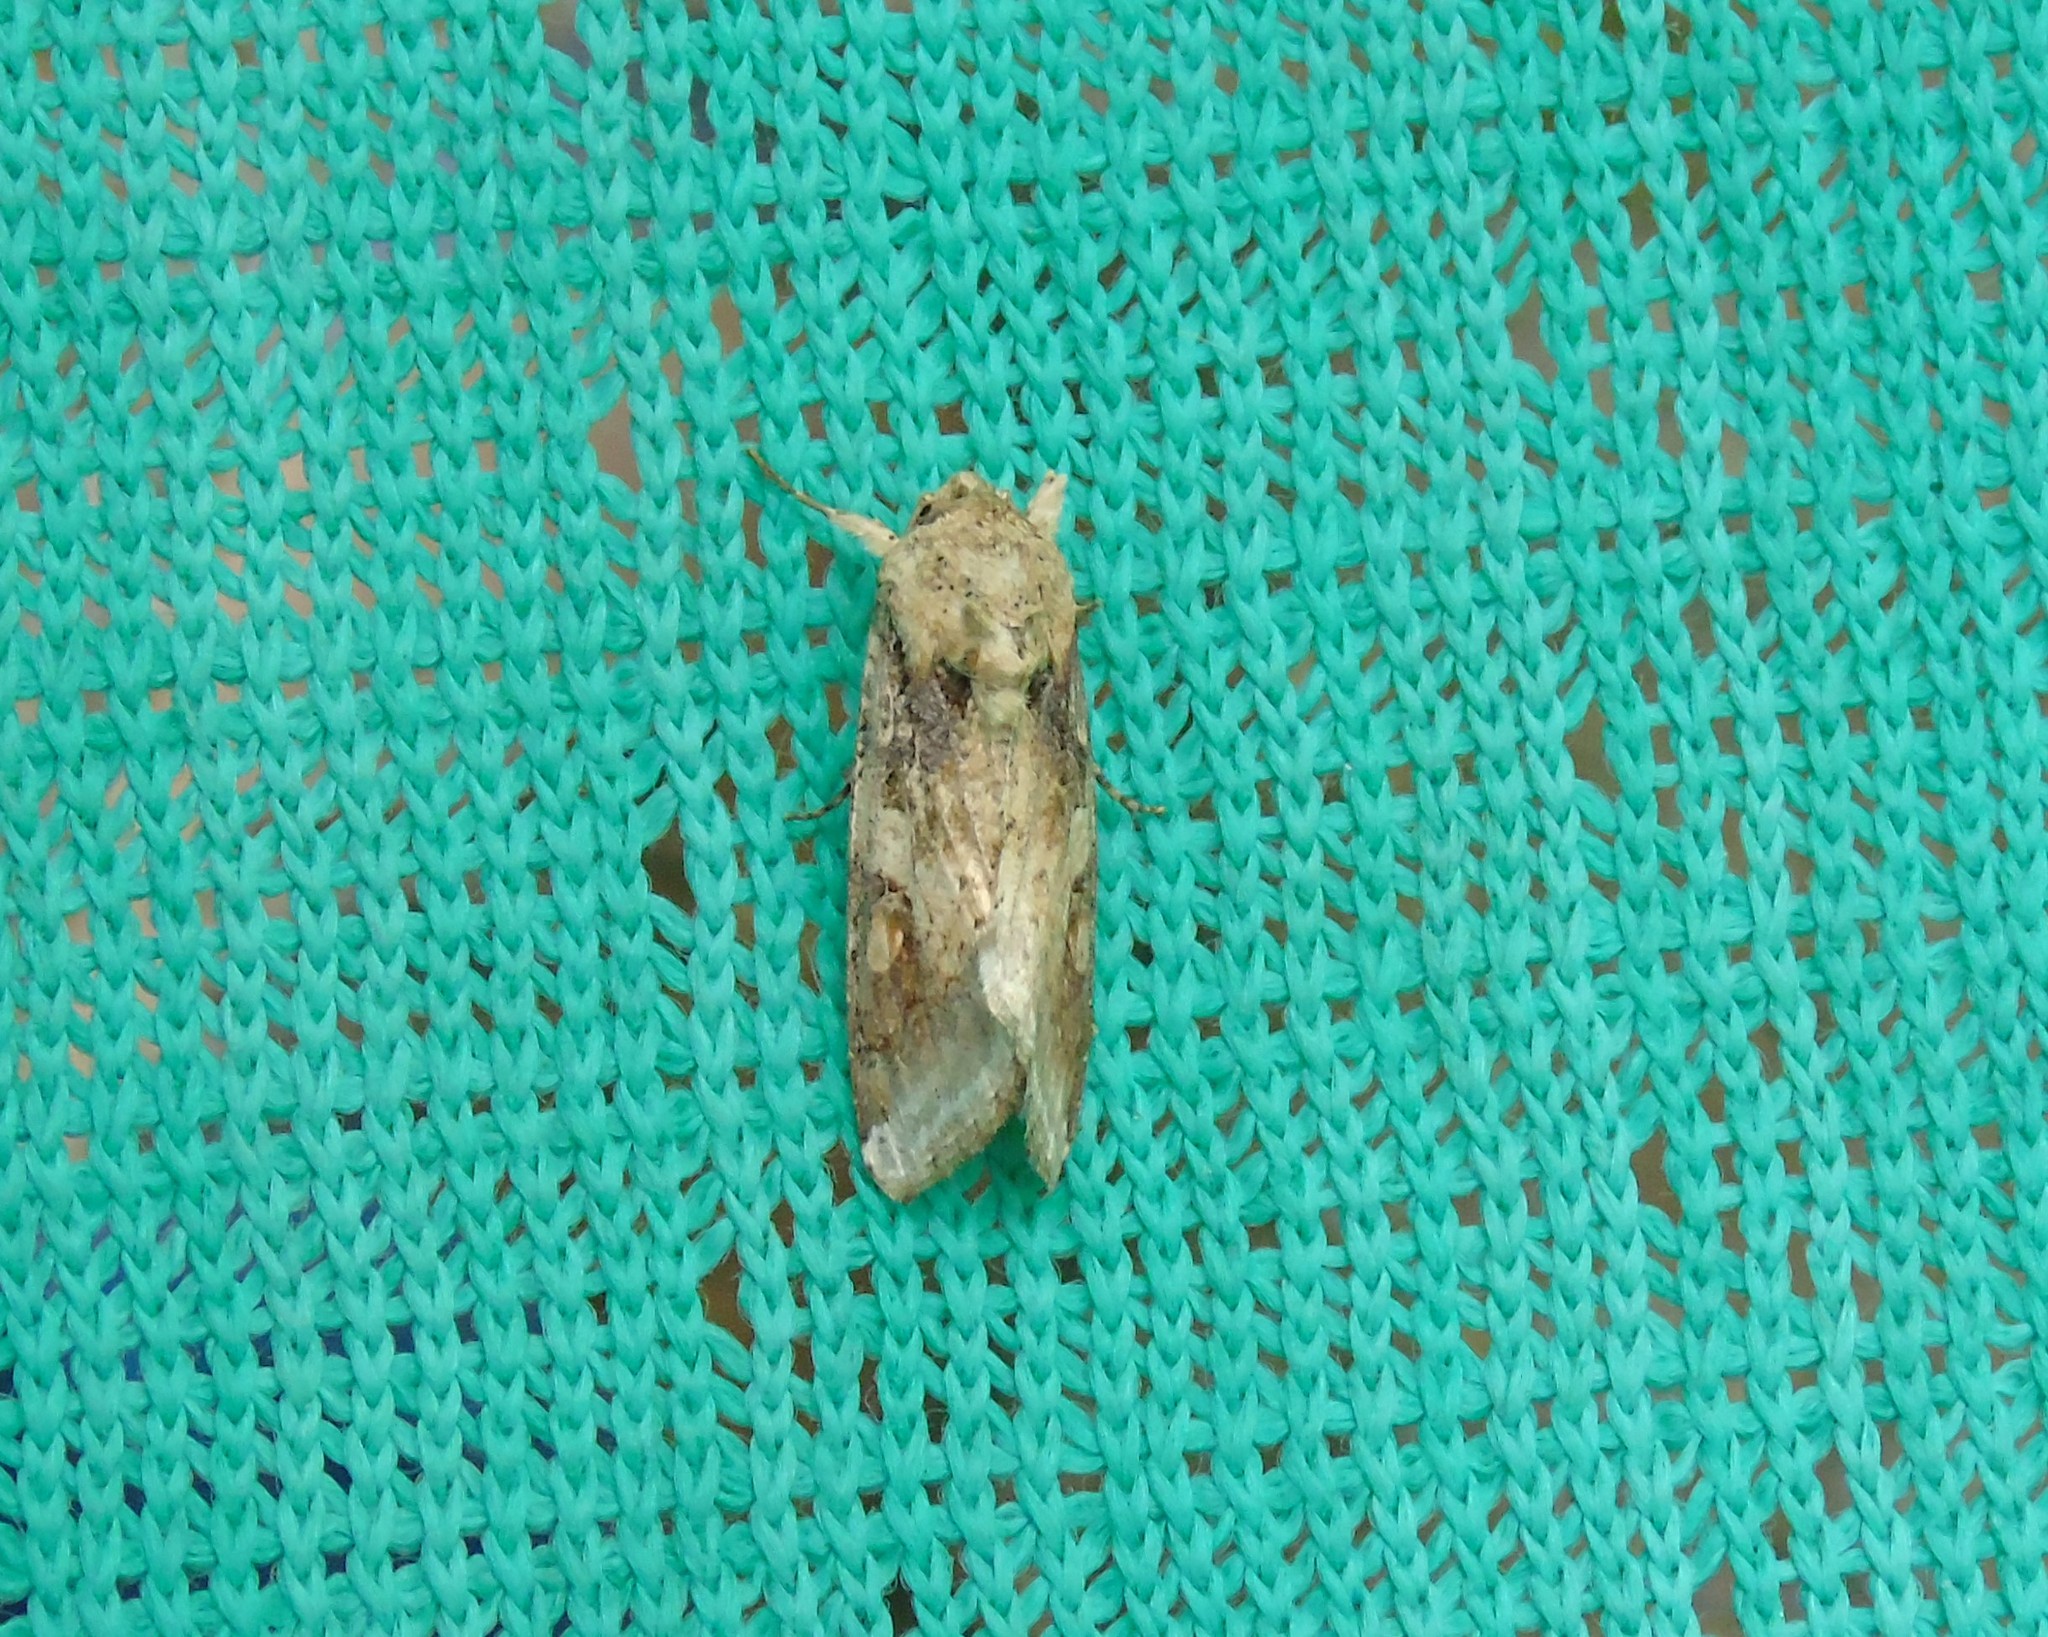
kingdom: Animalia
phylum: Arthropoda
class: Insecta
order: Lepidoptera
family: Noctuidae
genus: Spodoptera
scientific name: Spodoptera
